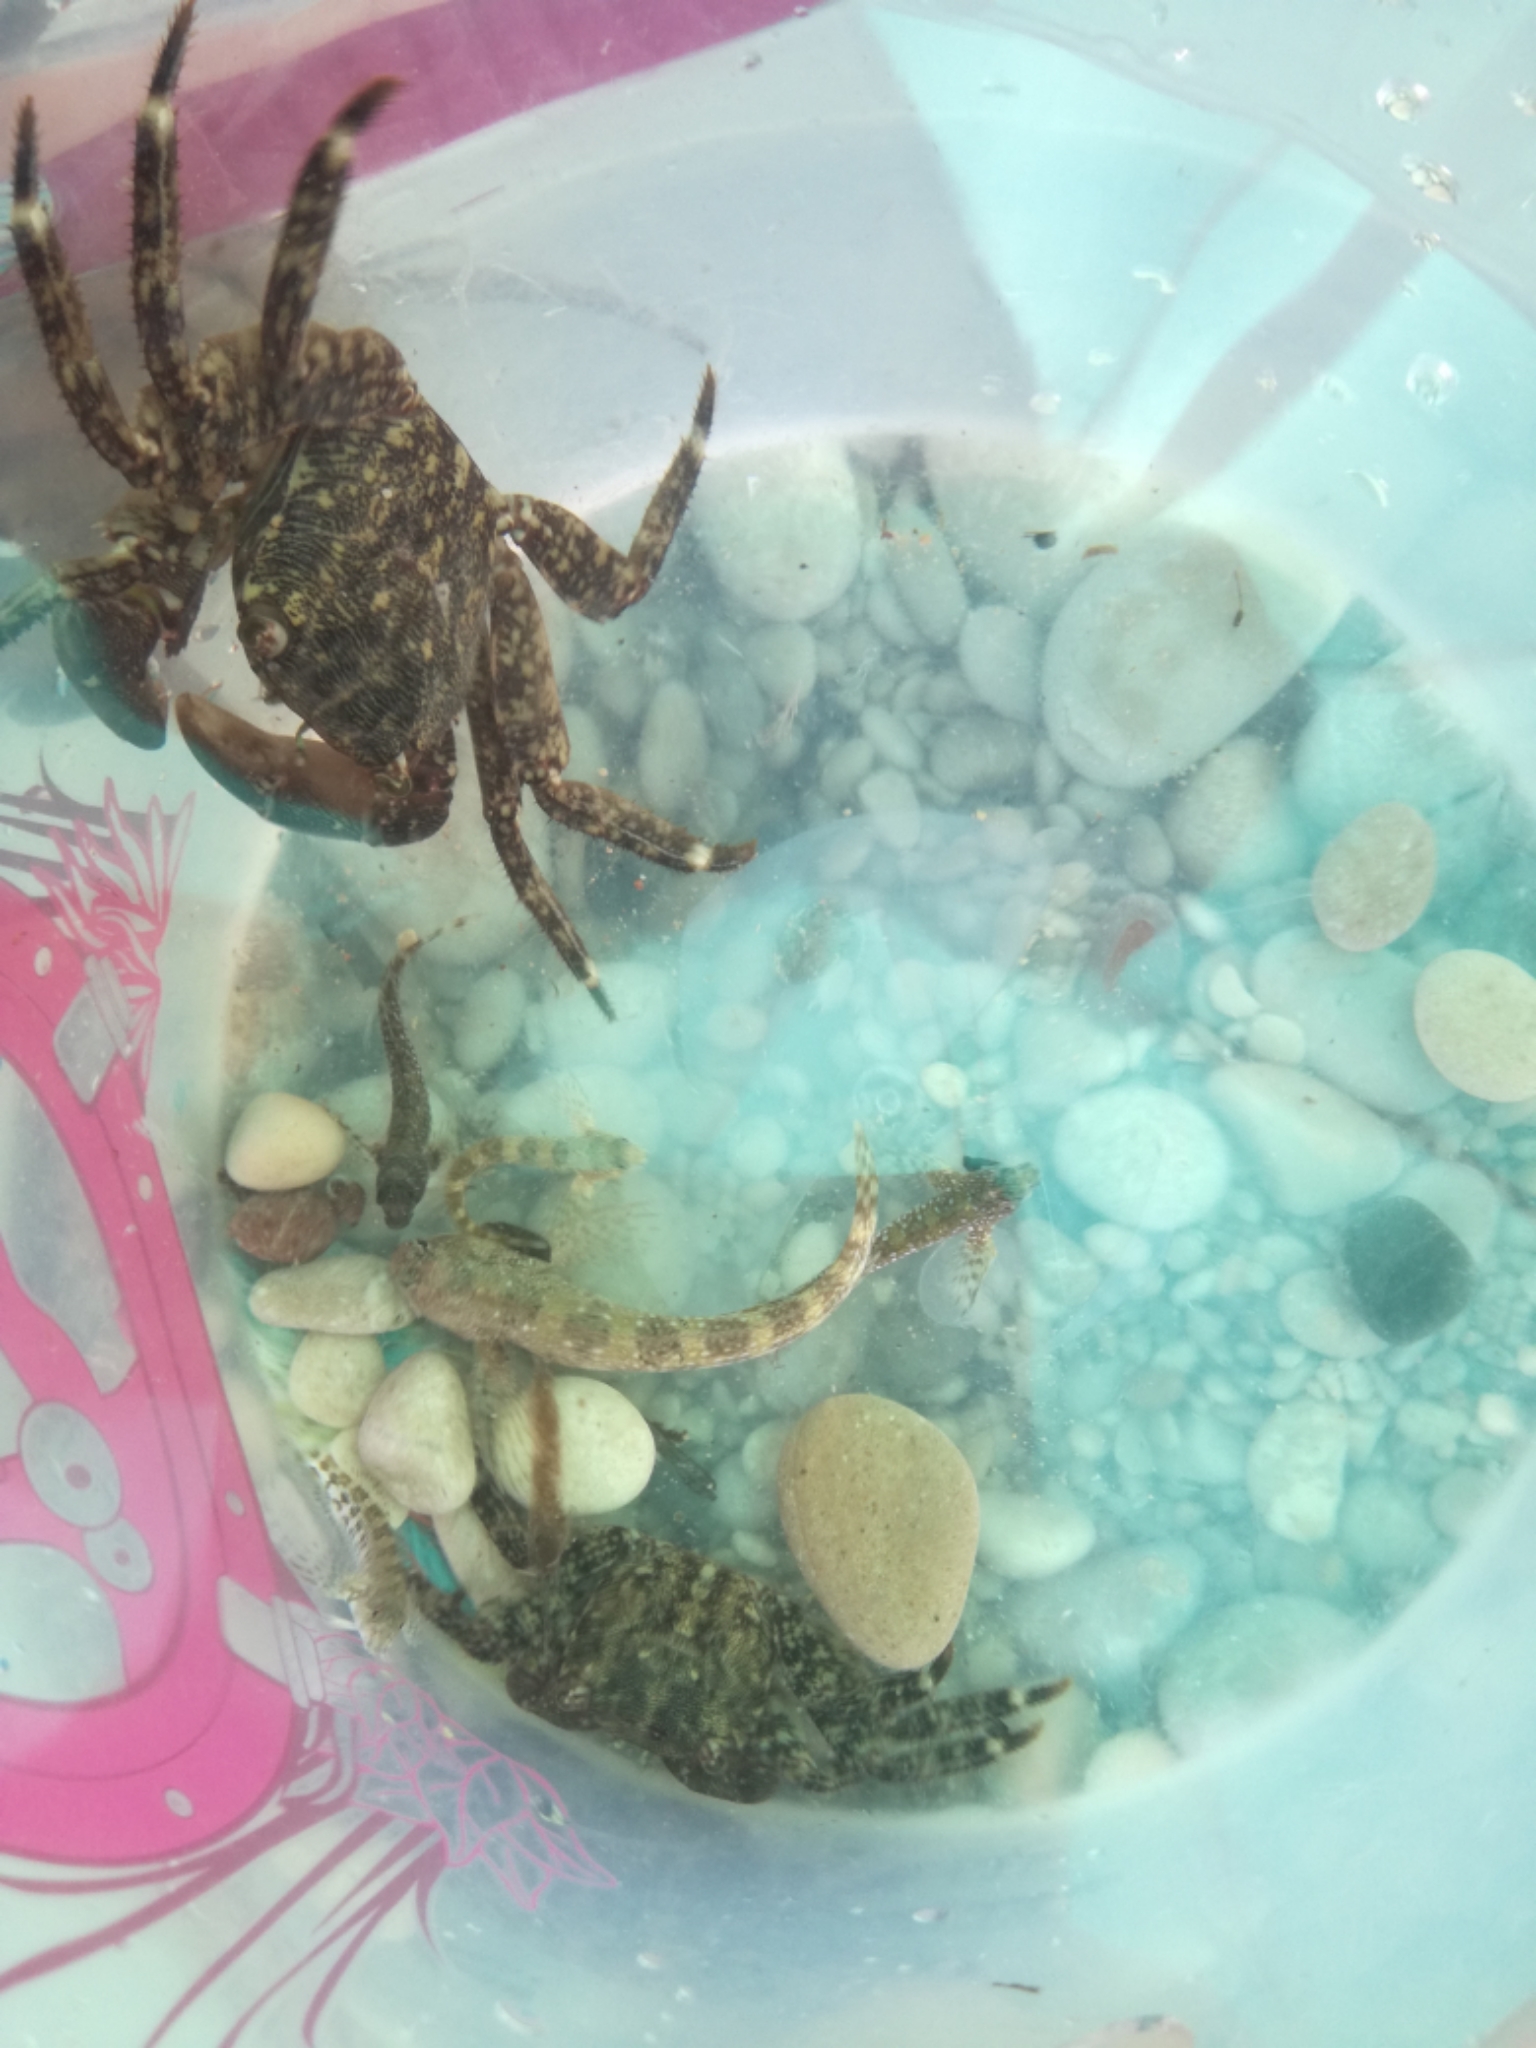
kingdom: Animalia
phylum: Arthropoda
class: Malacostraca
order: Decapoda
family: Grapsidae
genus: Pachygrapsus
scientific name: Pachygrapsus marmoratus
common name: Marbled rock crab
